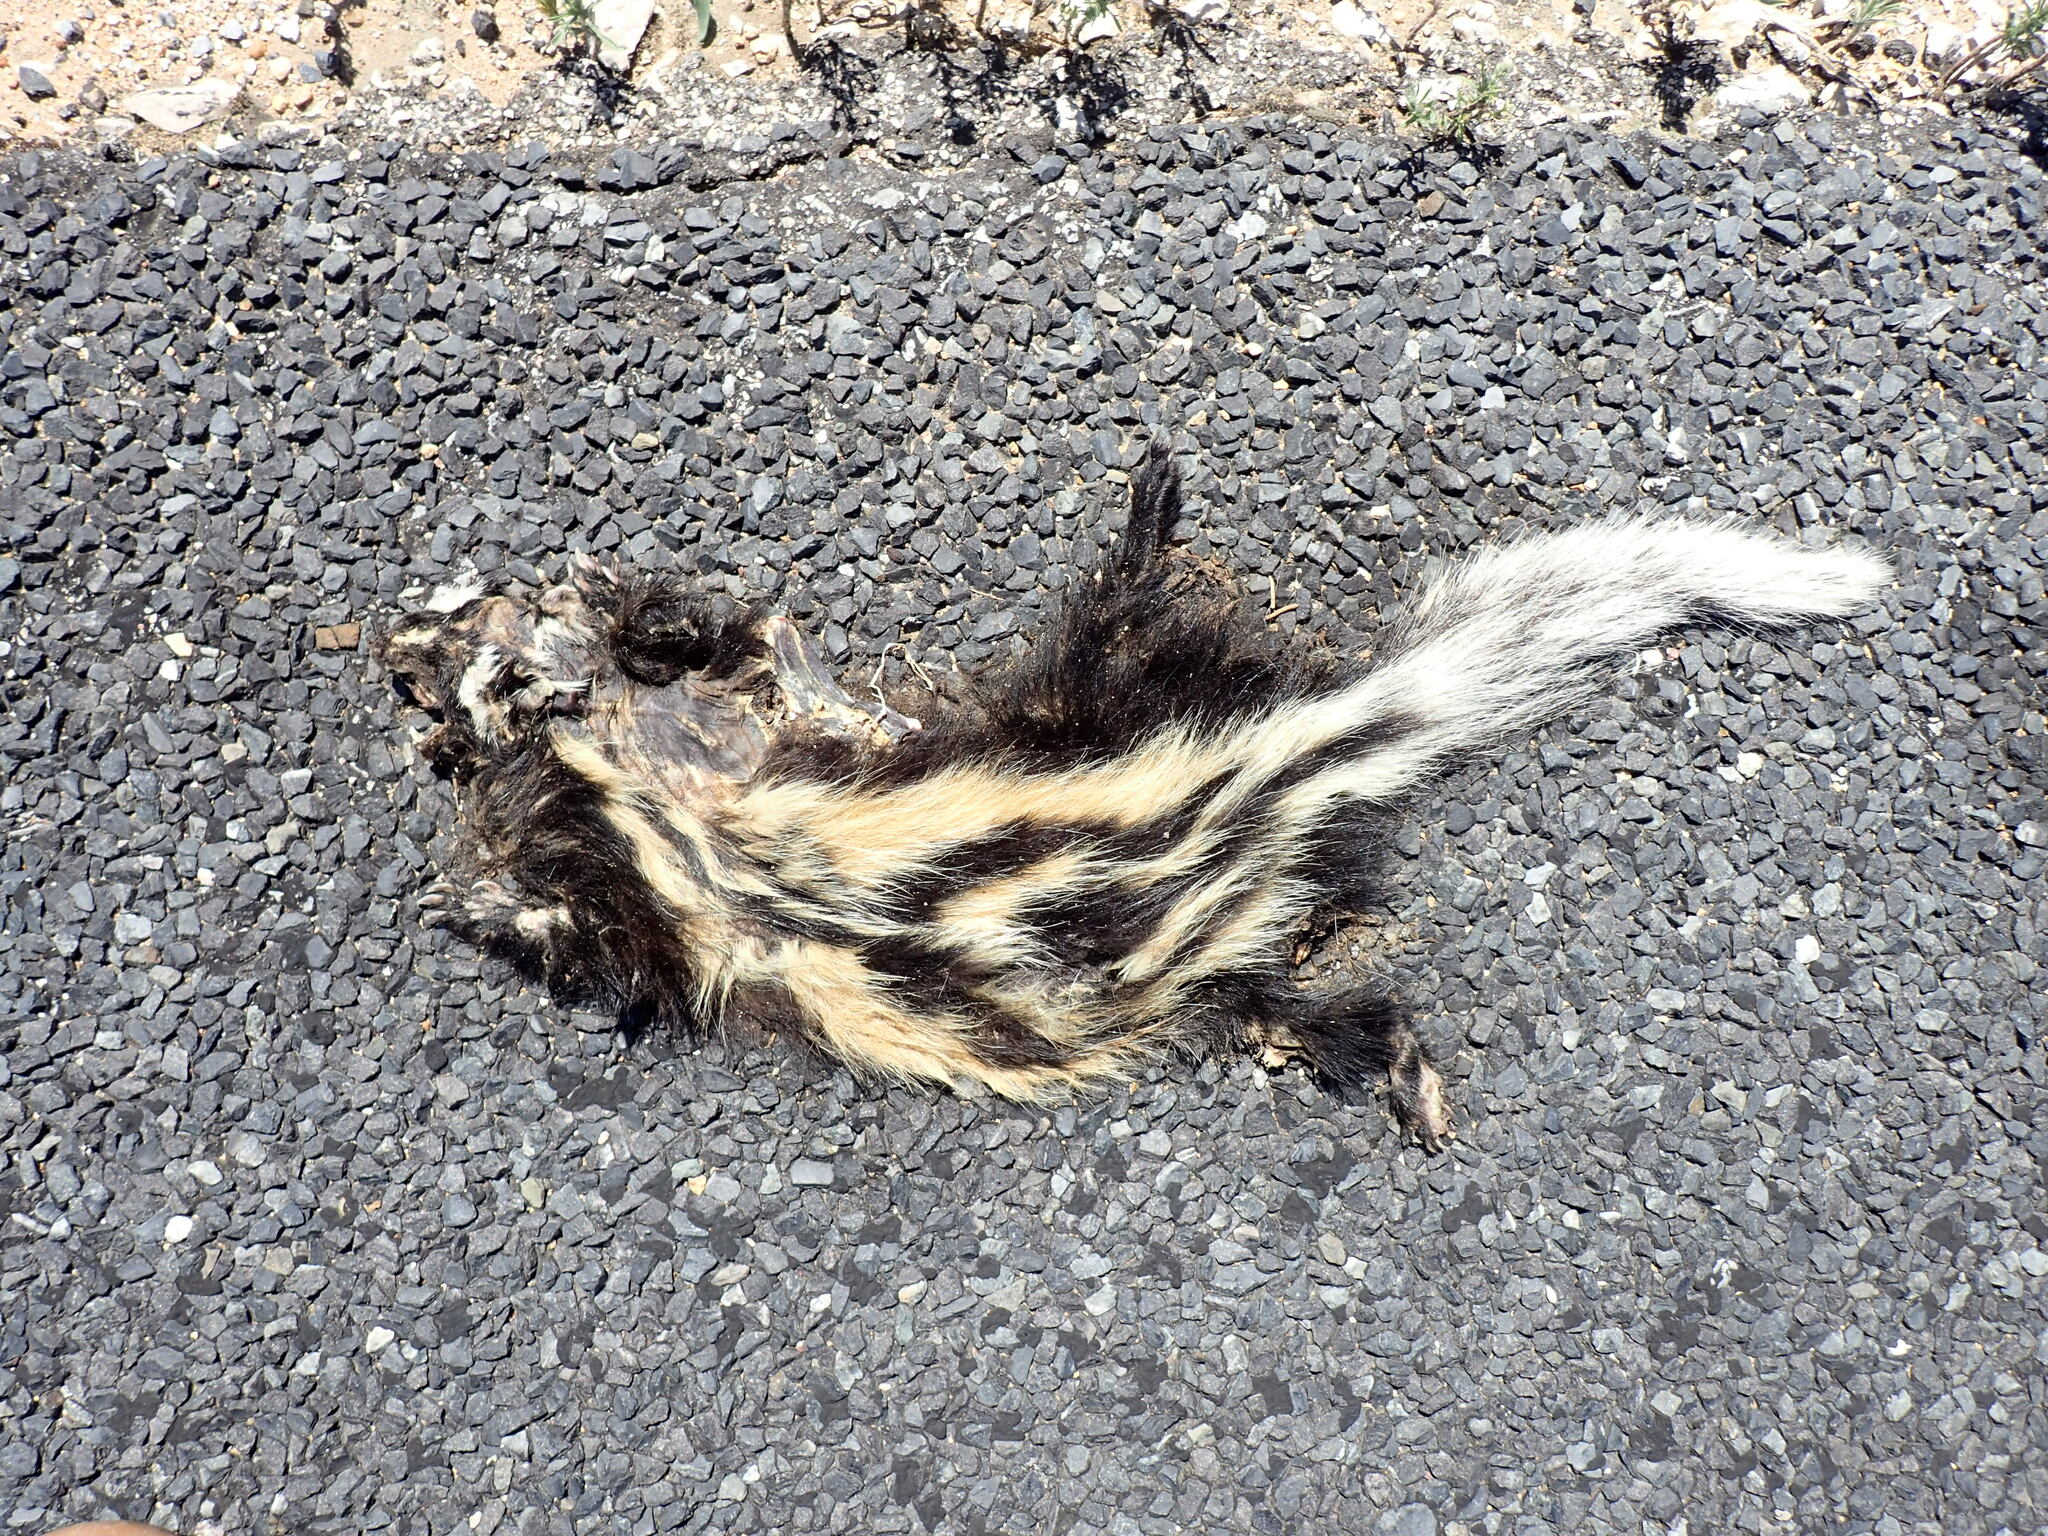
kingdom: Animalia
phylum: Chordata
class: Mammalia
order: Carnivora
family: Mustelidae
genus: Ictonyx
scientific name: Ictonyx striatus
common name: Striped polecat
